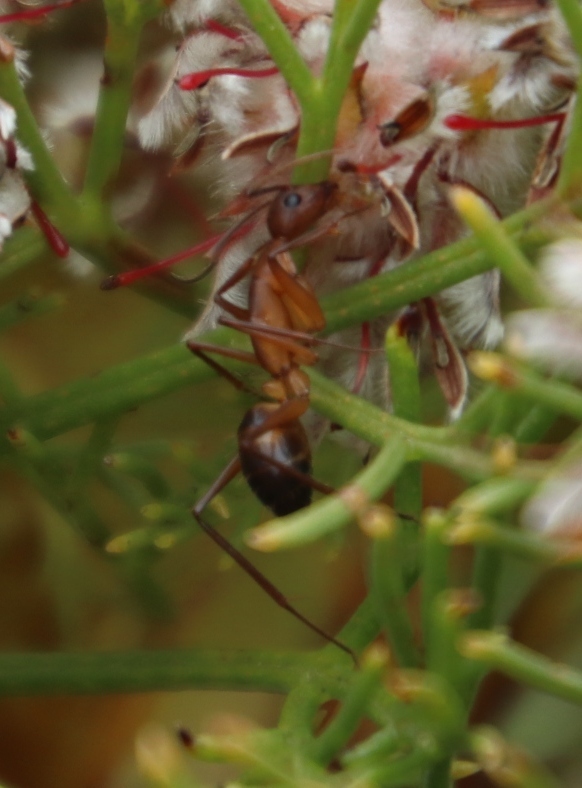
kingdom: Animalia
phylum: Arthropoda
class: Insecta
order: Hymenoptera
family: Formicidae
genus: Camponotus
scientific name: Camponotus maculatus
